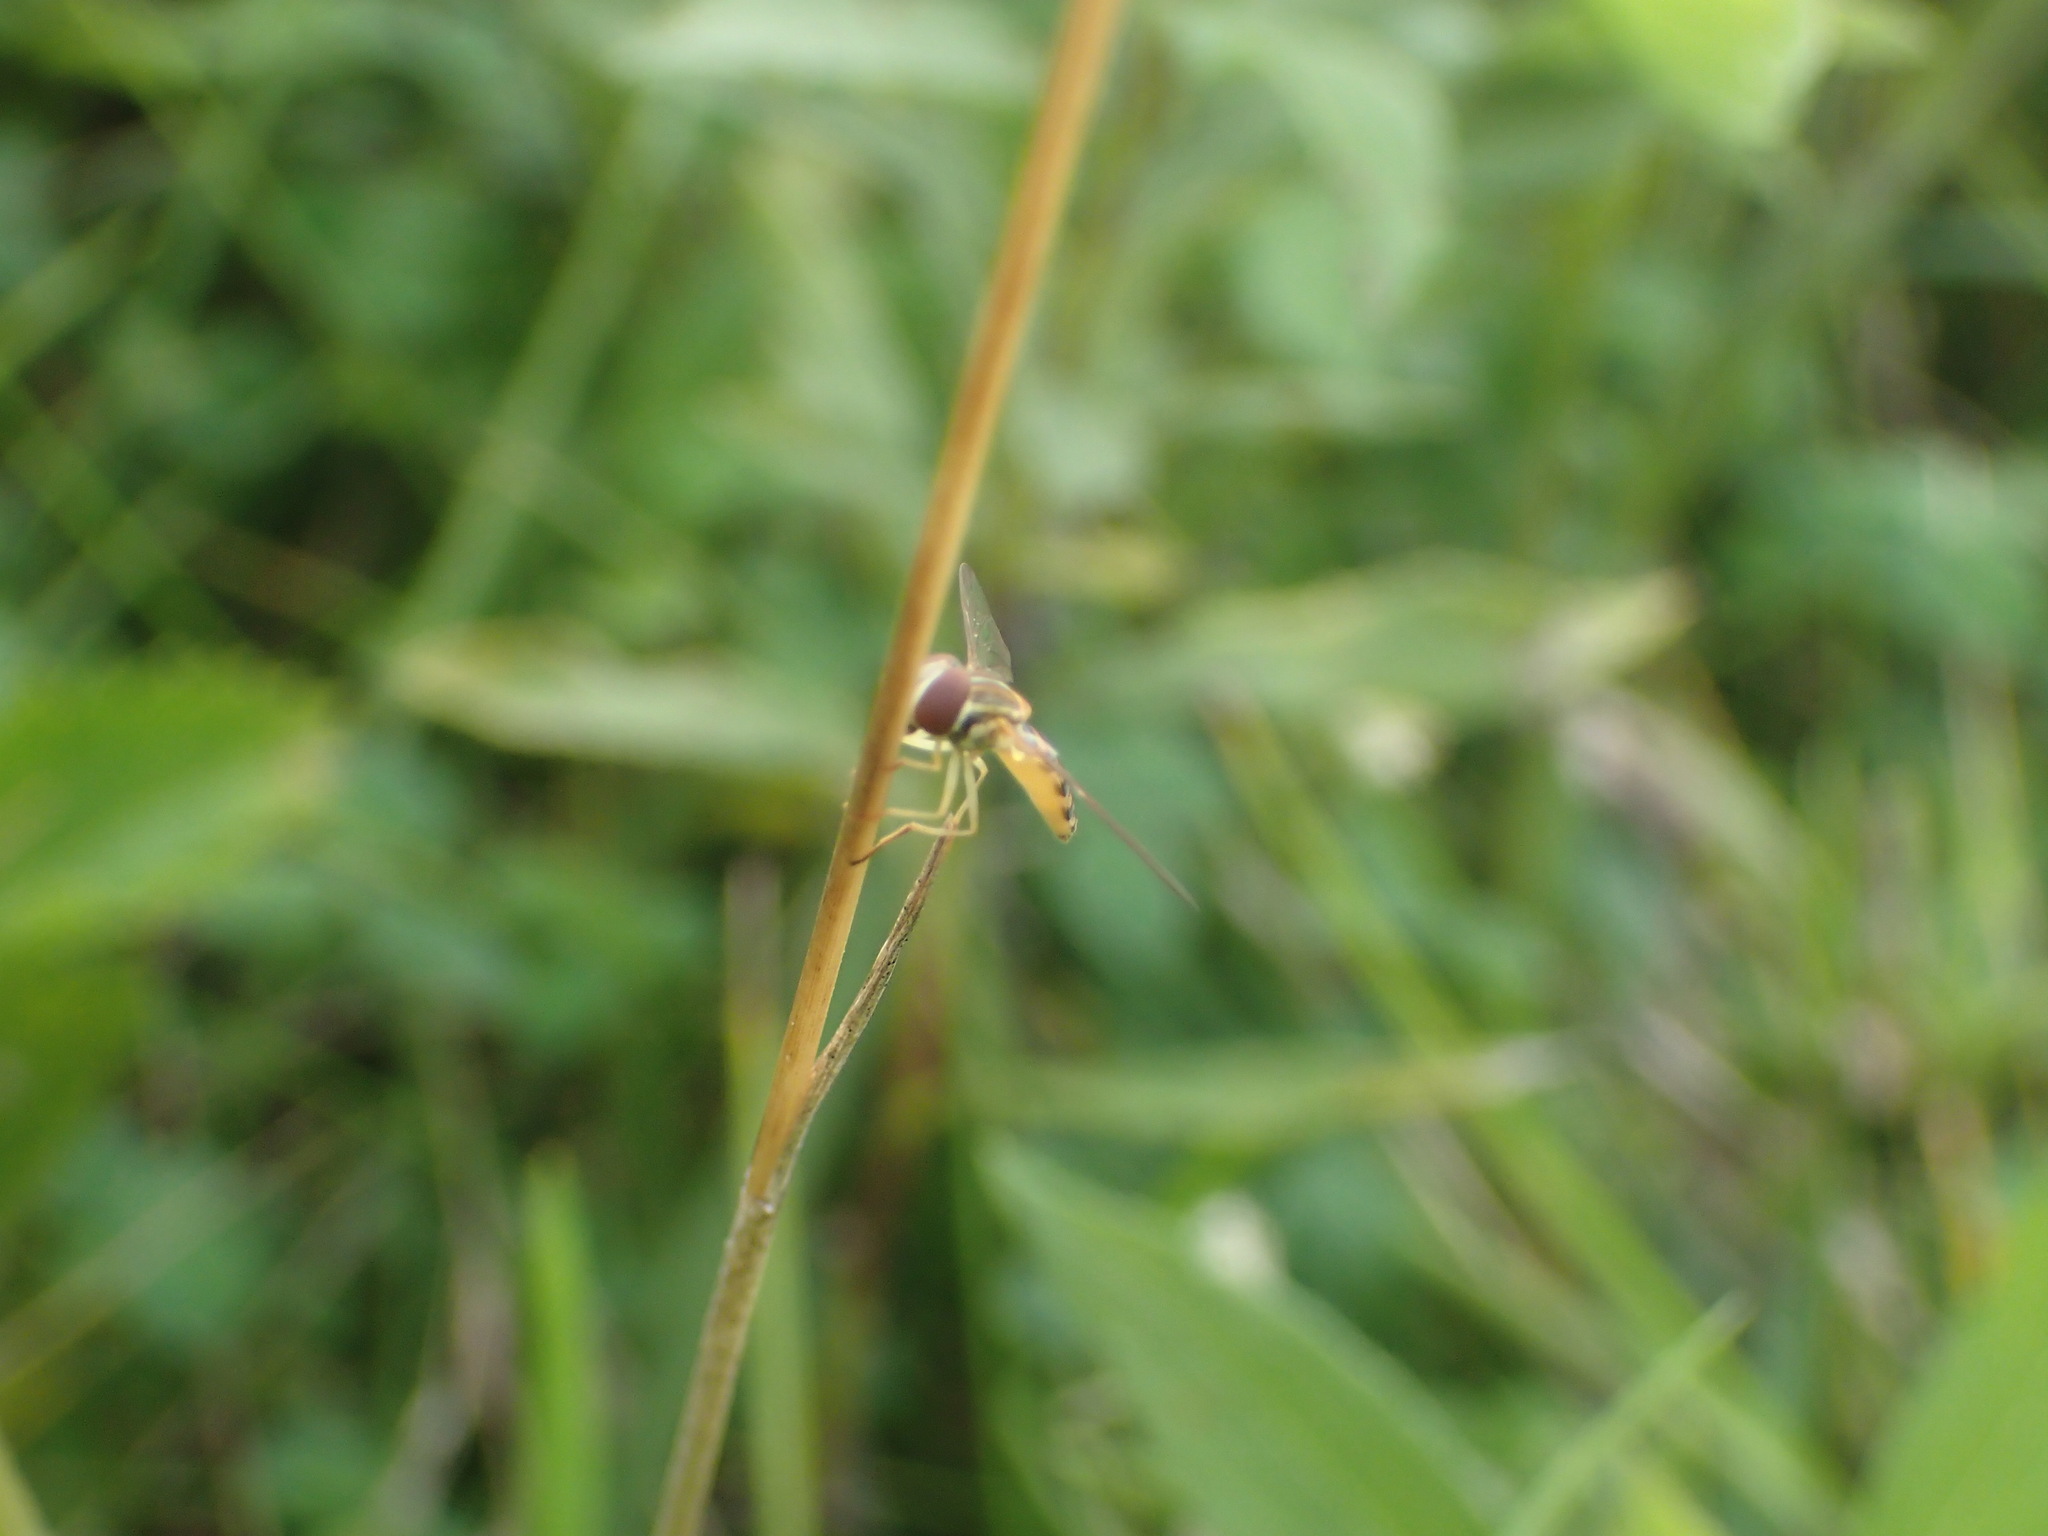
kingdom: Animalia
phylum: Arthropoda
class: Insecta
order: Diptera
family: Syrphidae
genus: Toxomerus
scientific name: Toxomerus politus
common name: Maize calligrapher
